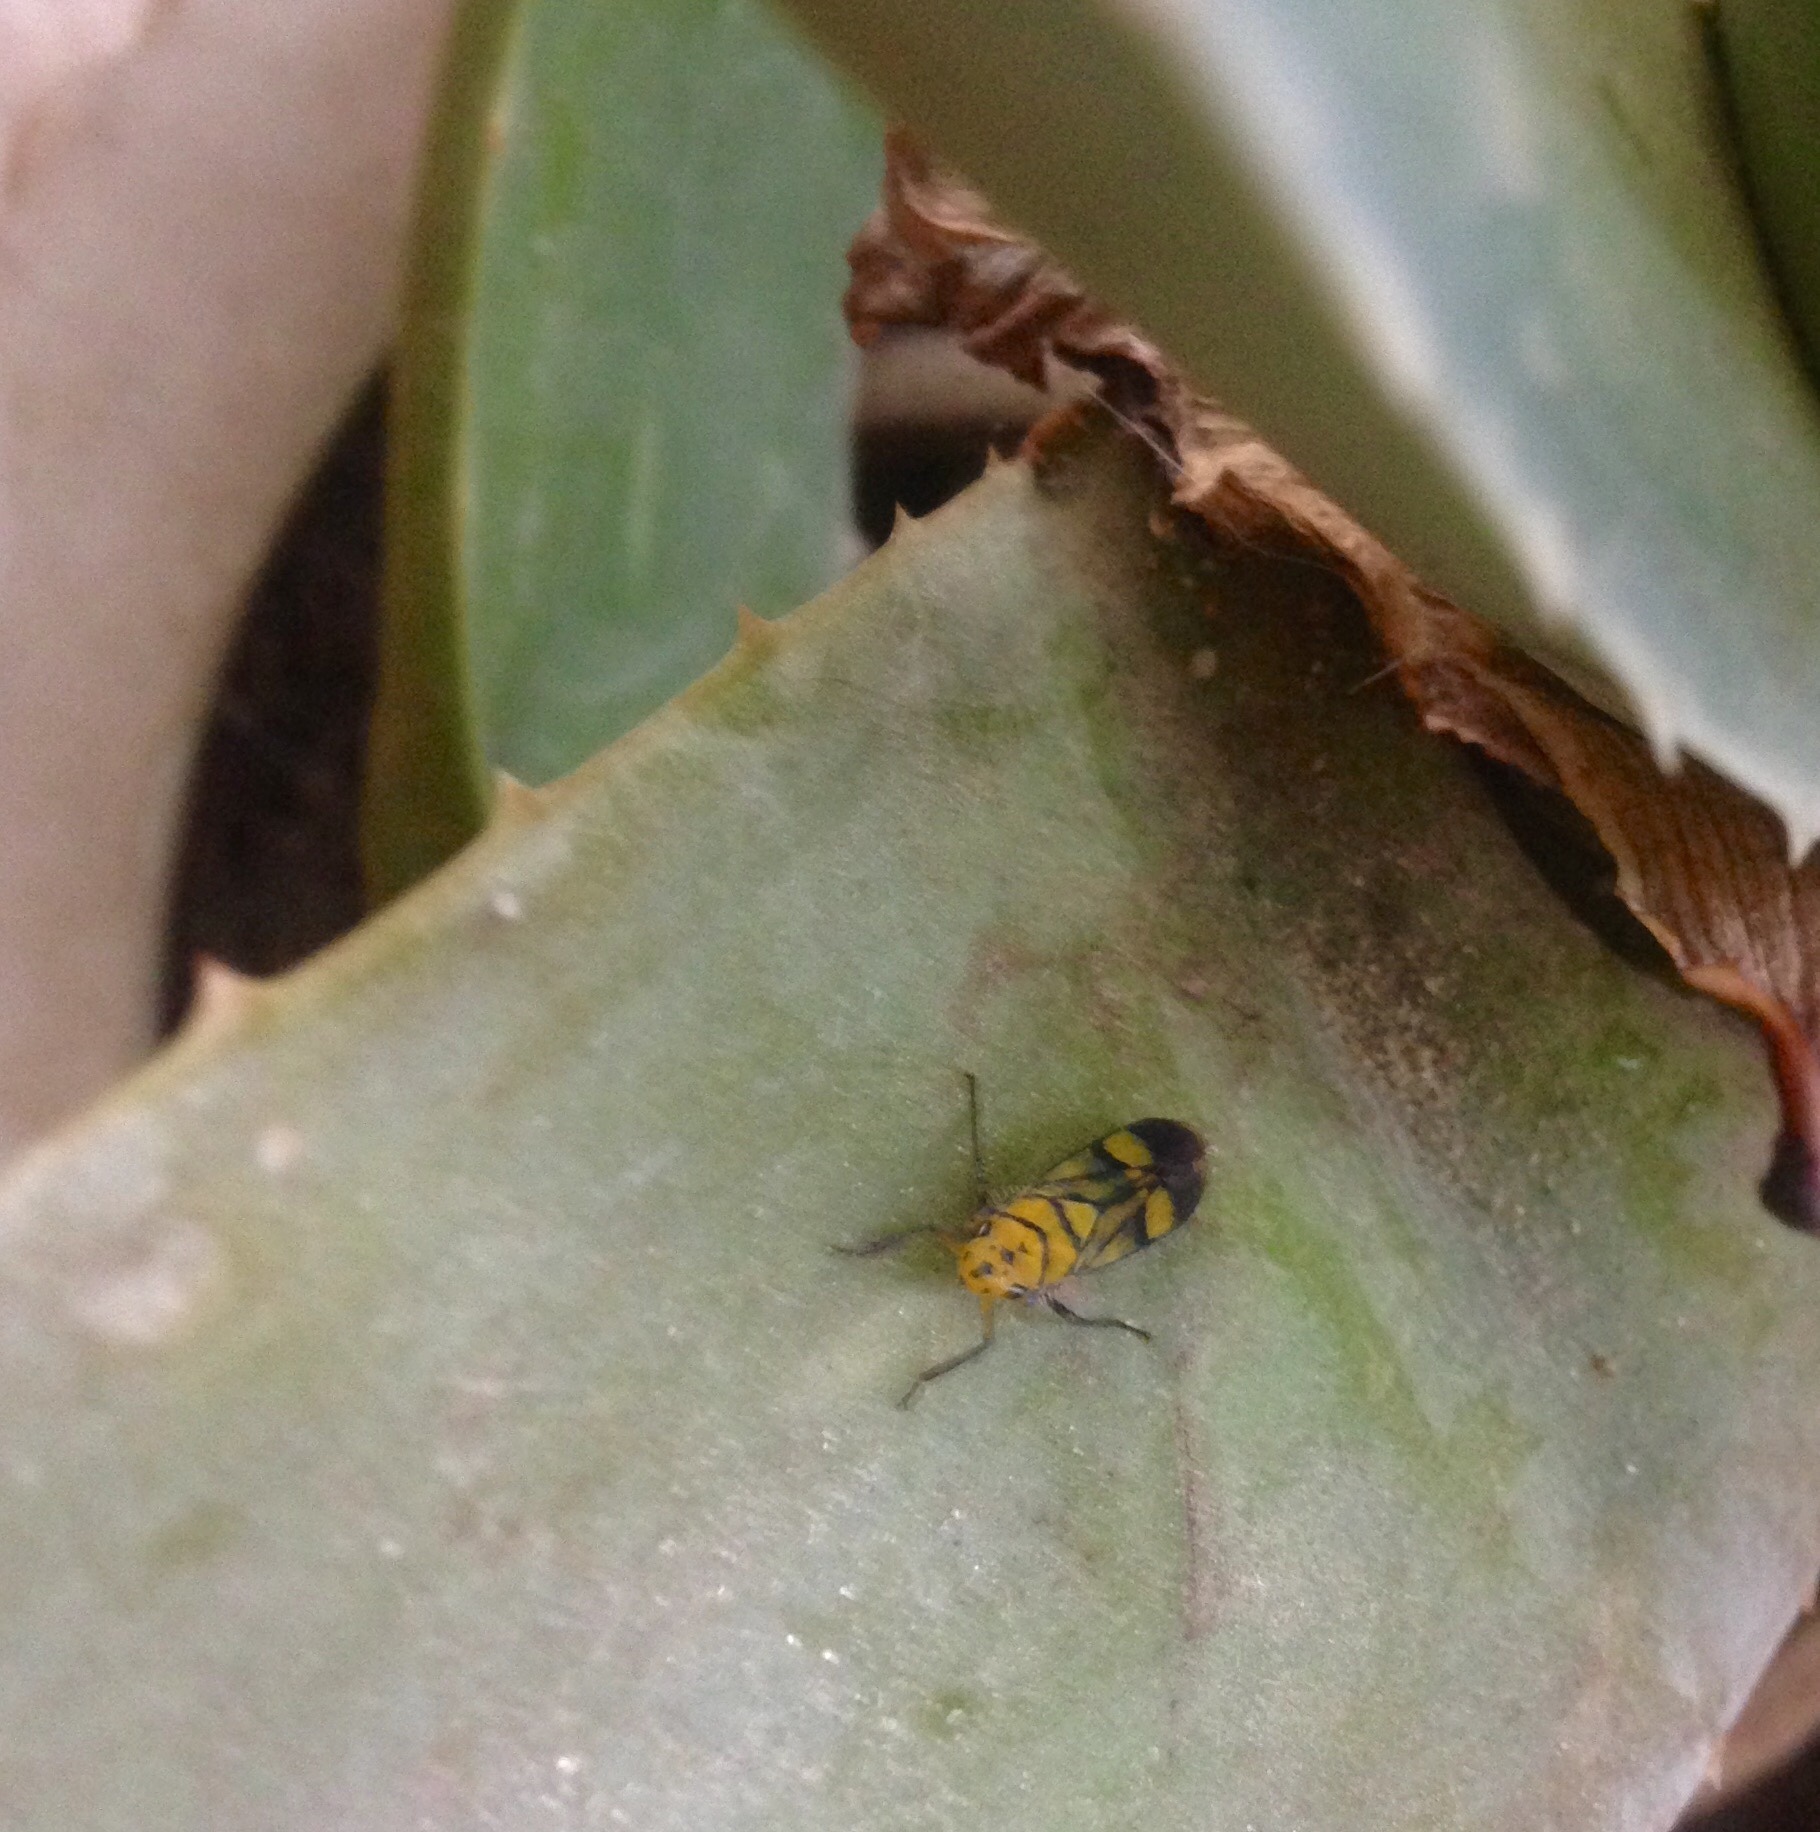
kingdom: Animalia
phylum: Arthropoda
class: Insecta
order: Hemiptera
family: Cicadellidae
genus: Parathona
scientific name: Parathona cayennensis
